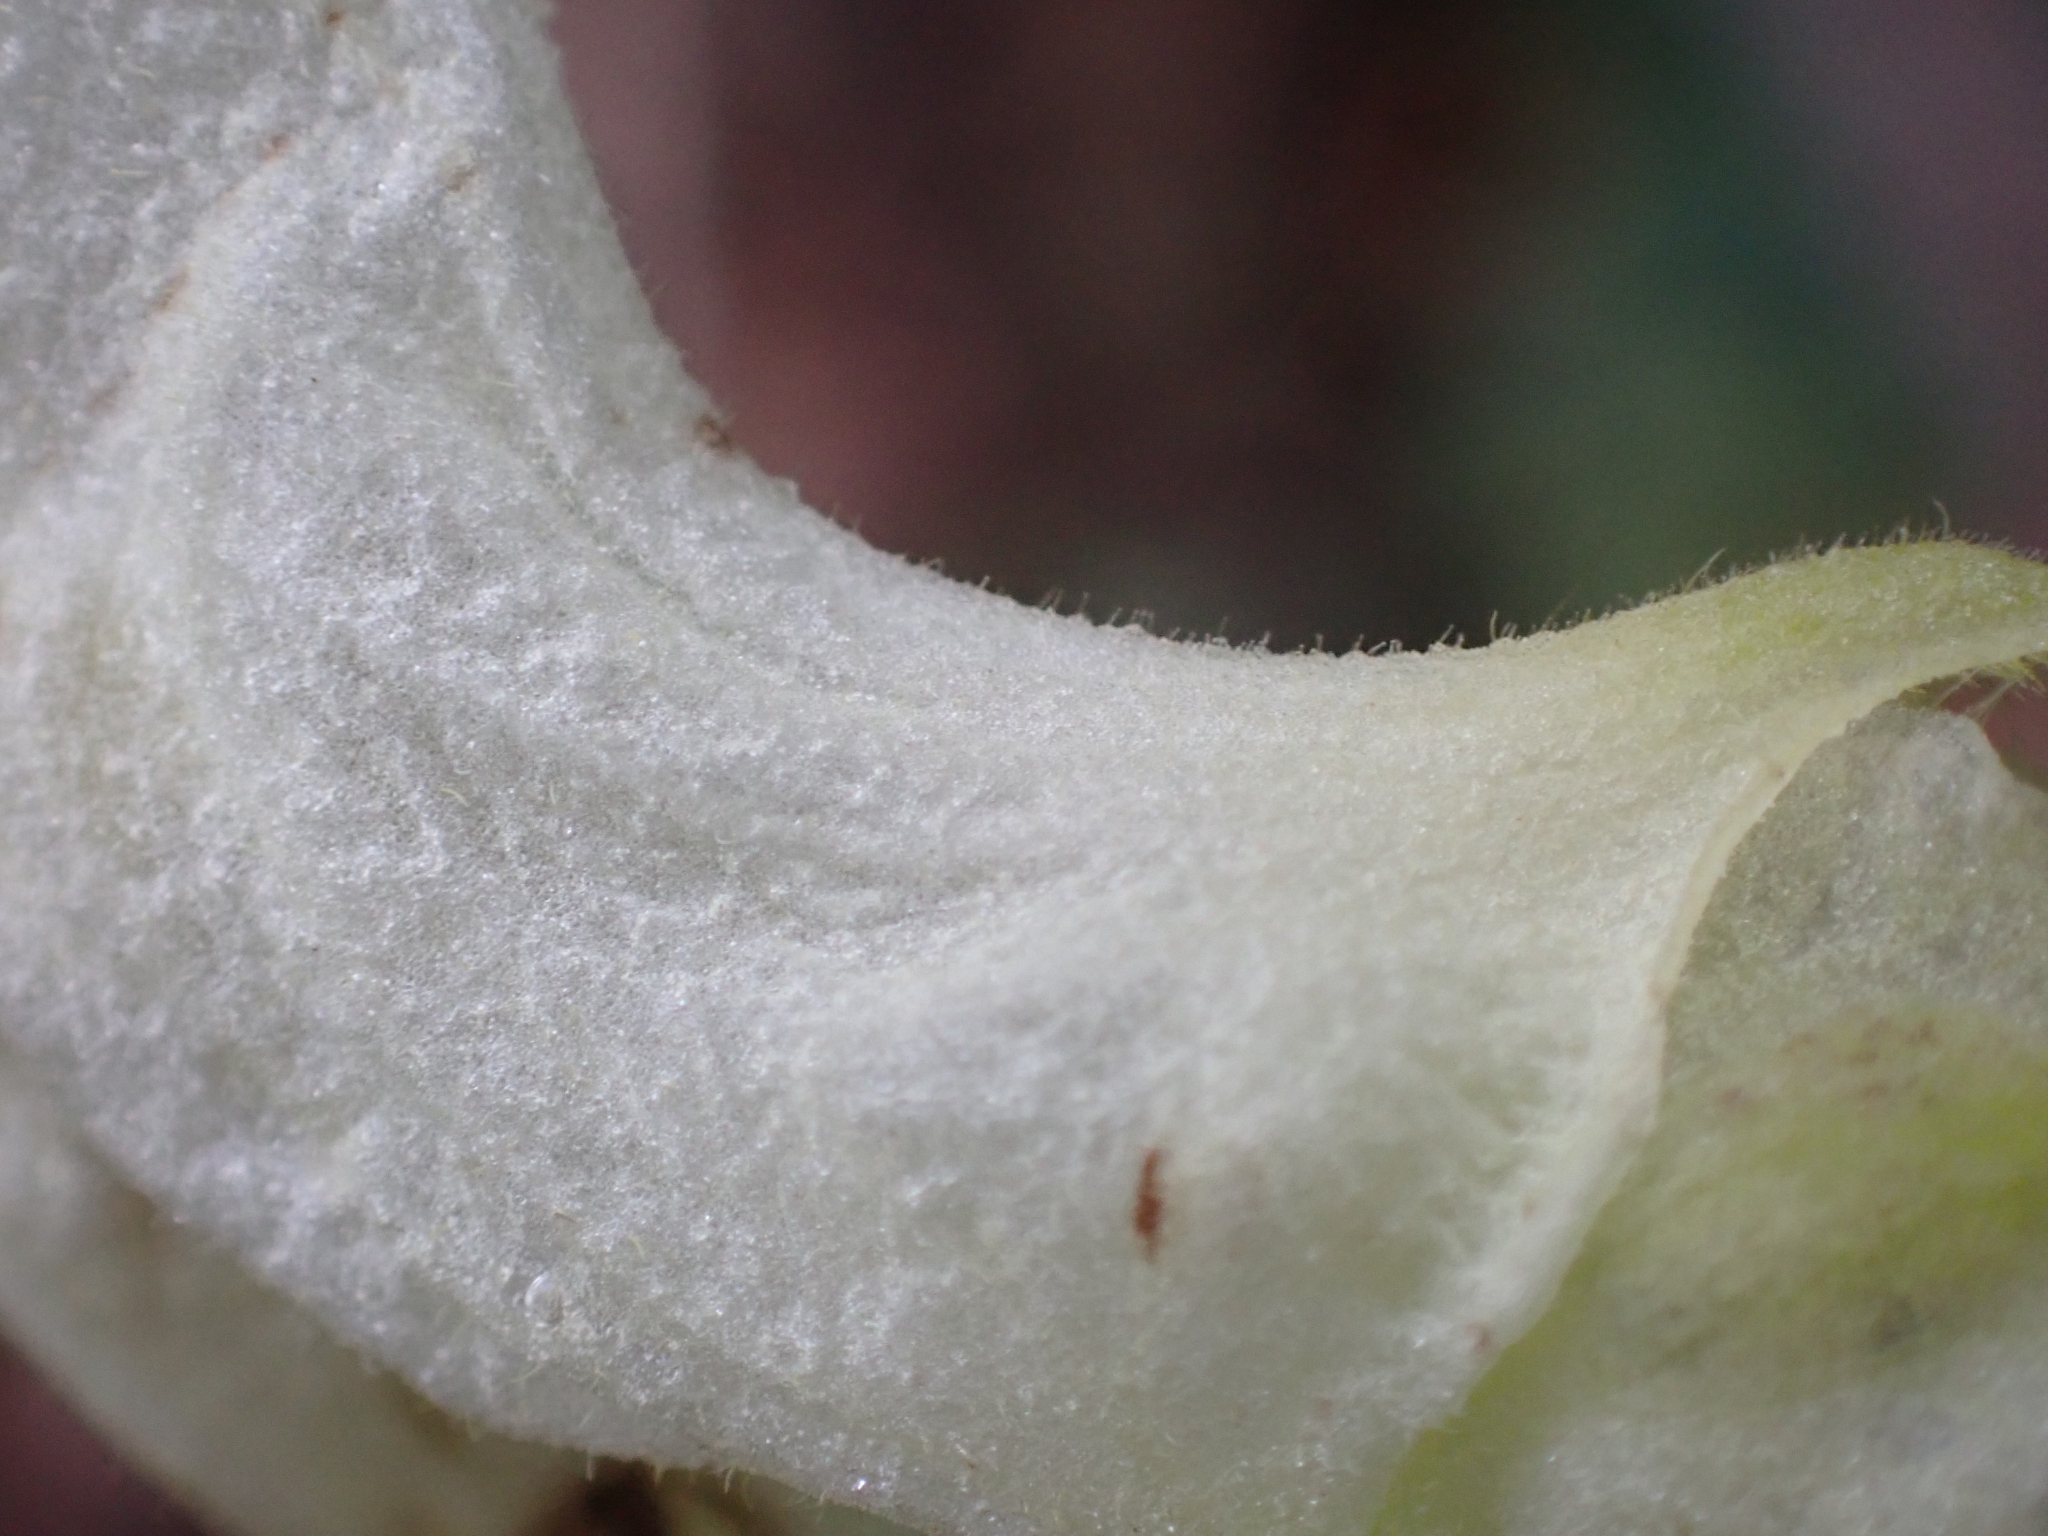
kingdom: Plantae
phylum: Tracheophyta
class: Magnoliopsida
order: Ranunculales
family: Ranunculaceae
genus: Aconitum
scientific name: Aconitum lycoctonum
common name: Wolf's-bane
